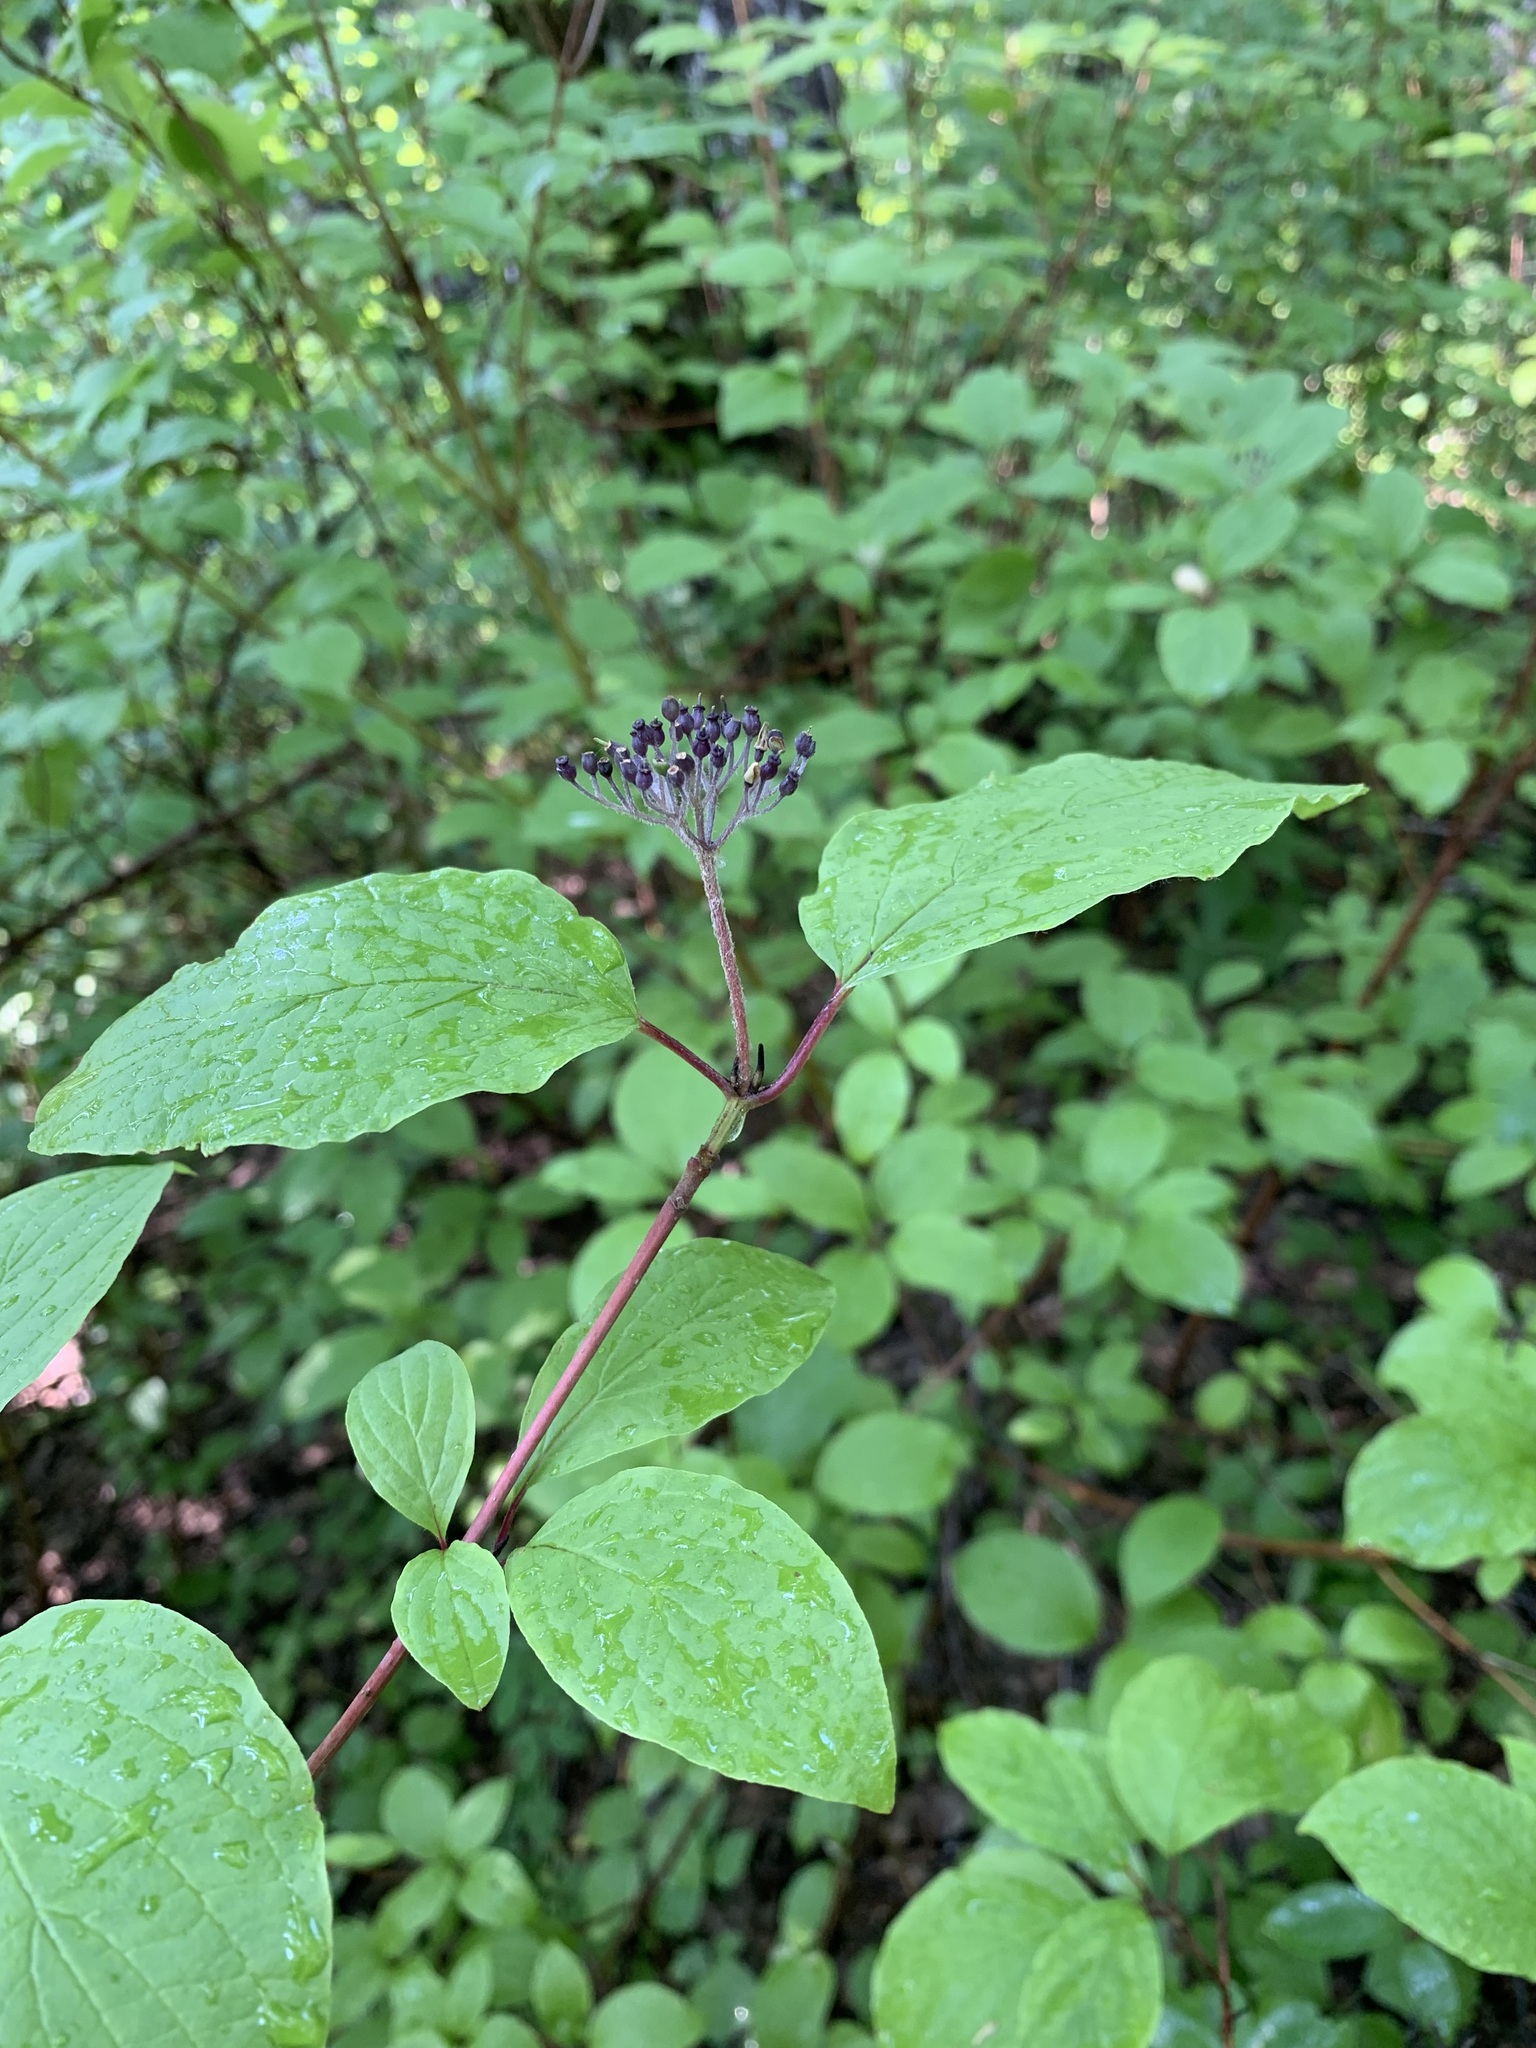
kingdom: Plantae
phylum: Tracheophyta
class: Magnoliopsida
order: Cornales
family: Cornaceae
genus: Cornus
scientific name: Cornus alba
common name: White dogwood
